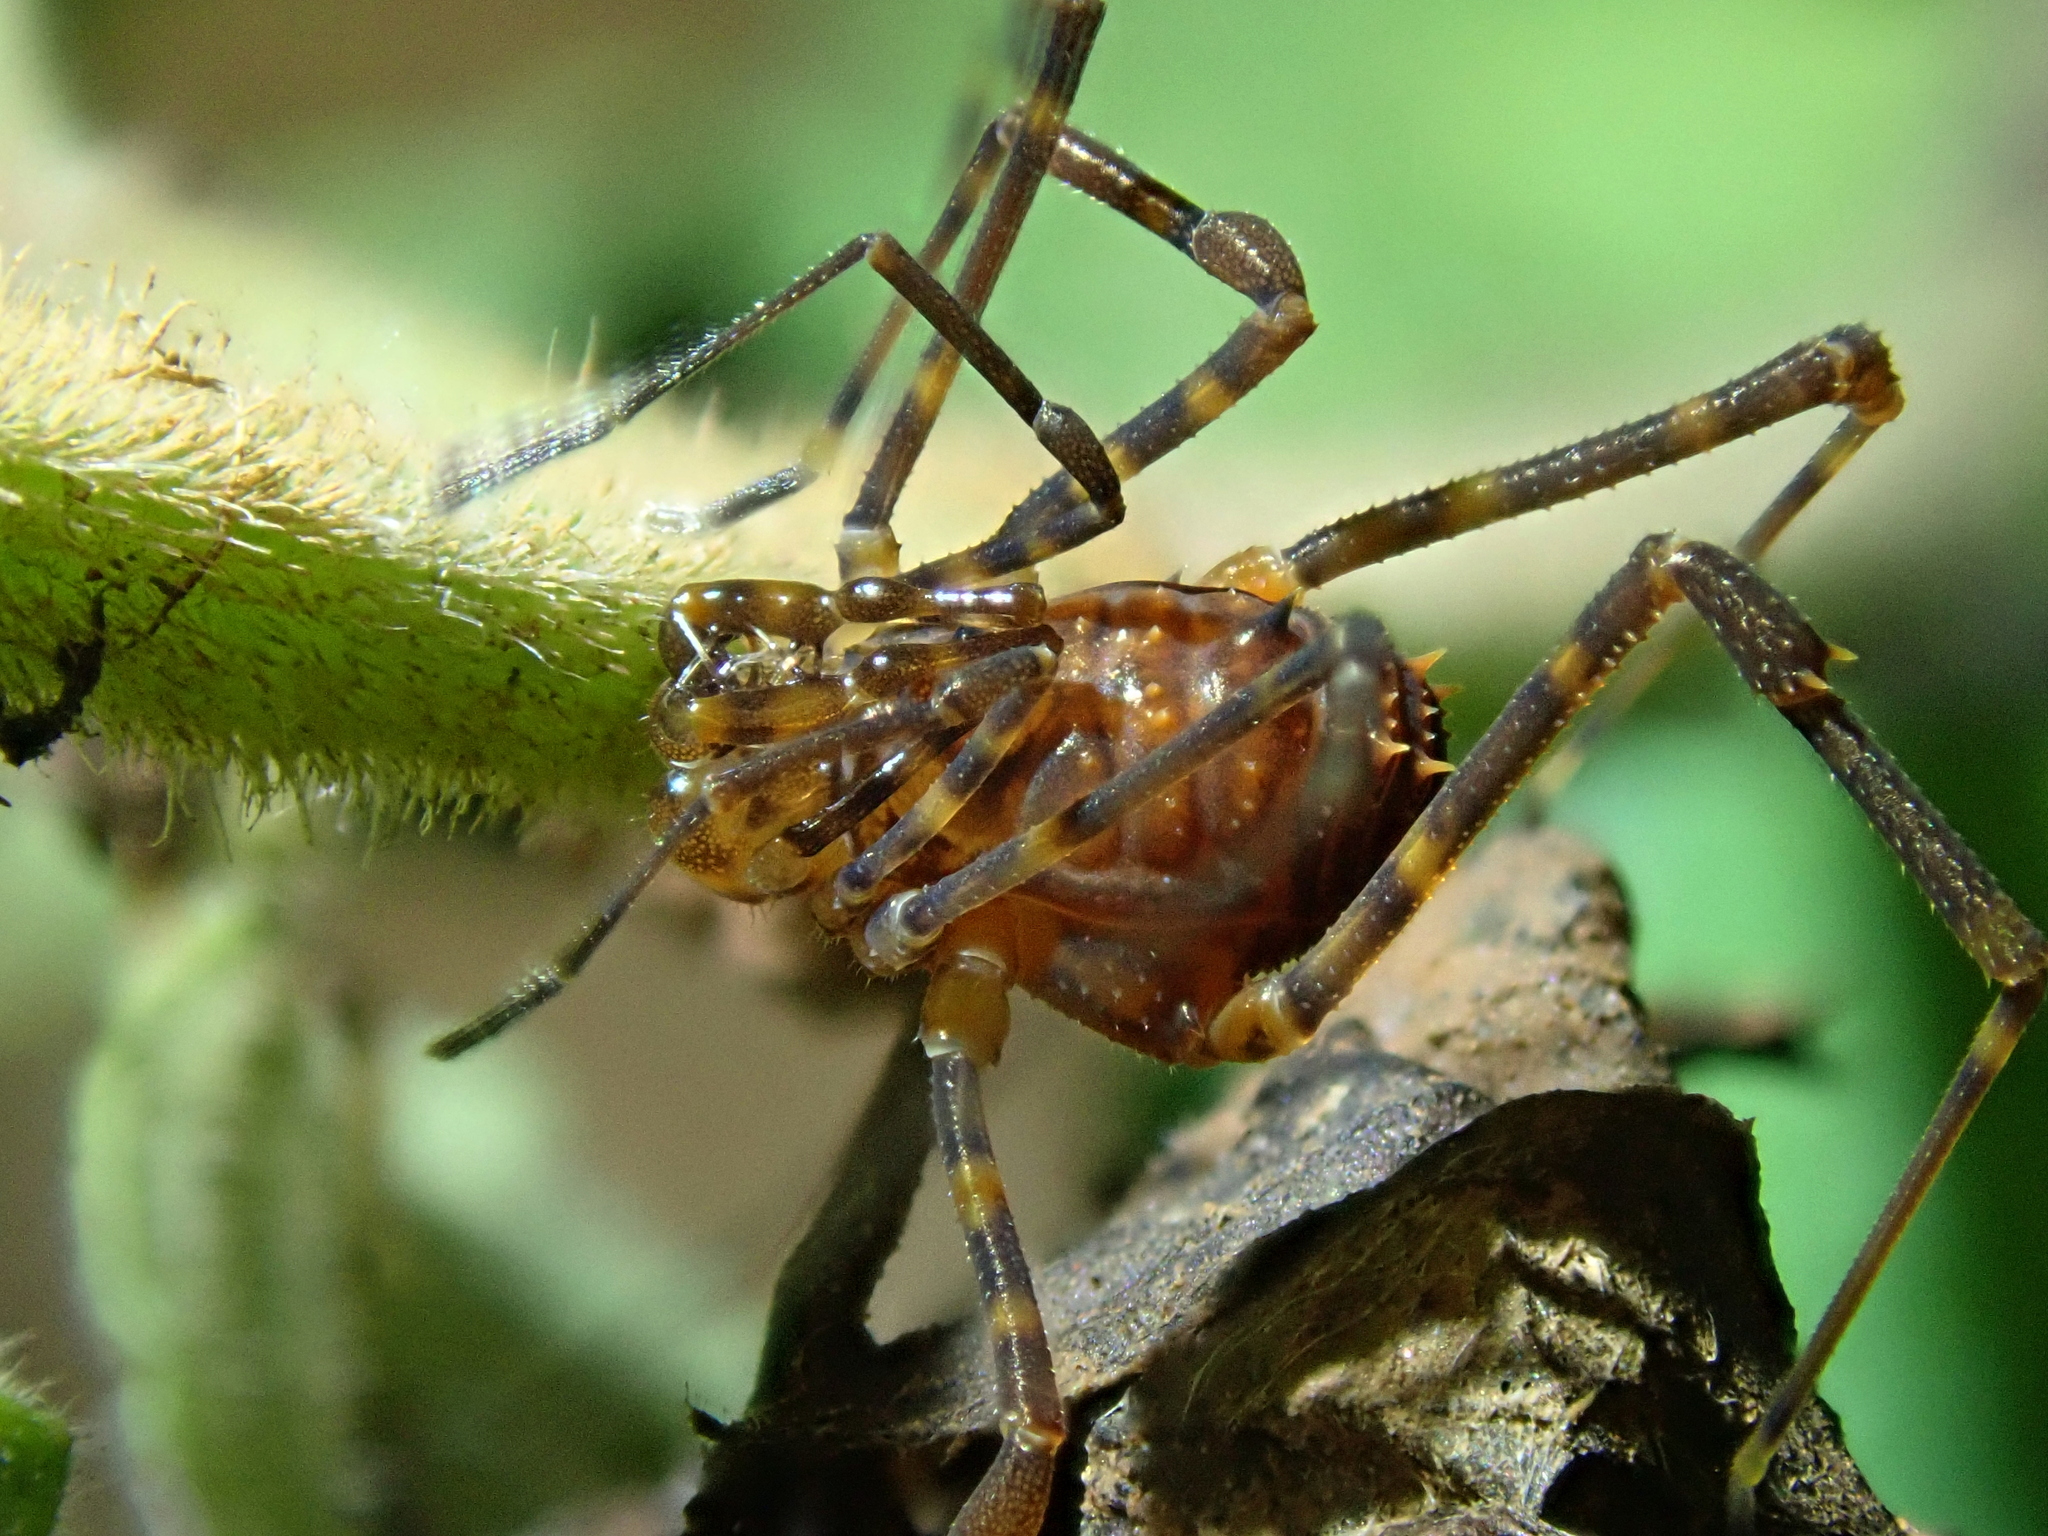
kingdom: Animalia
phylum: Arthropoda
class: Arachnida
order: Opiliones
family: Stygnidae
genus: Stygnus
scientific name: Stygnus luteus
